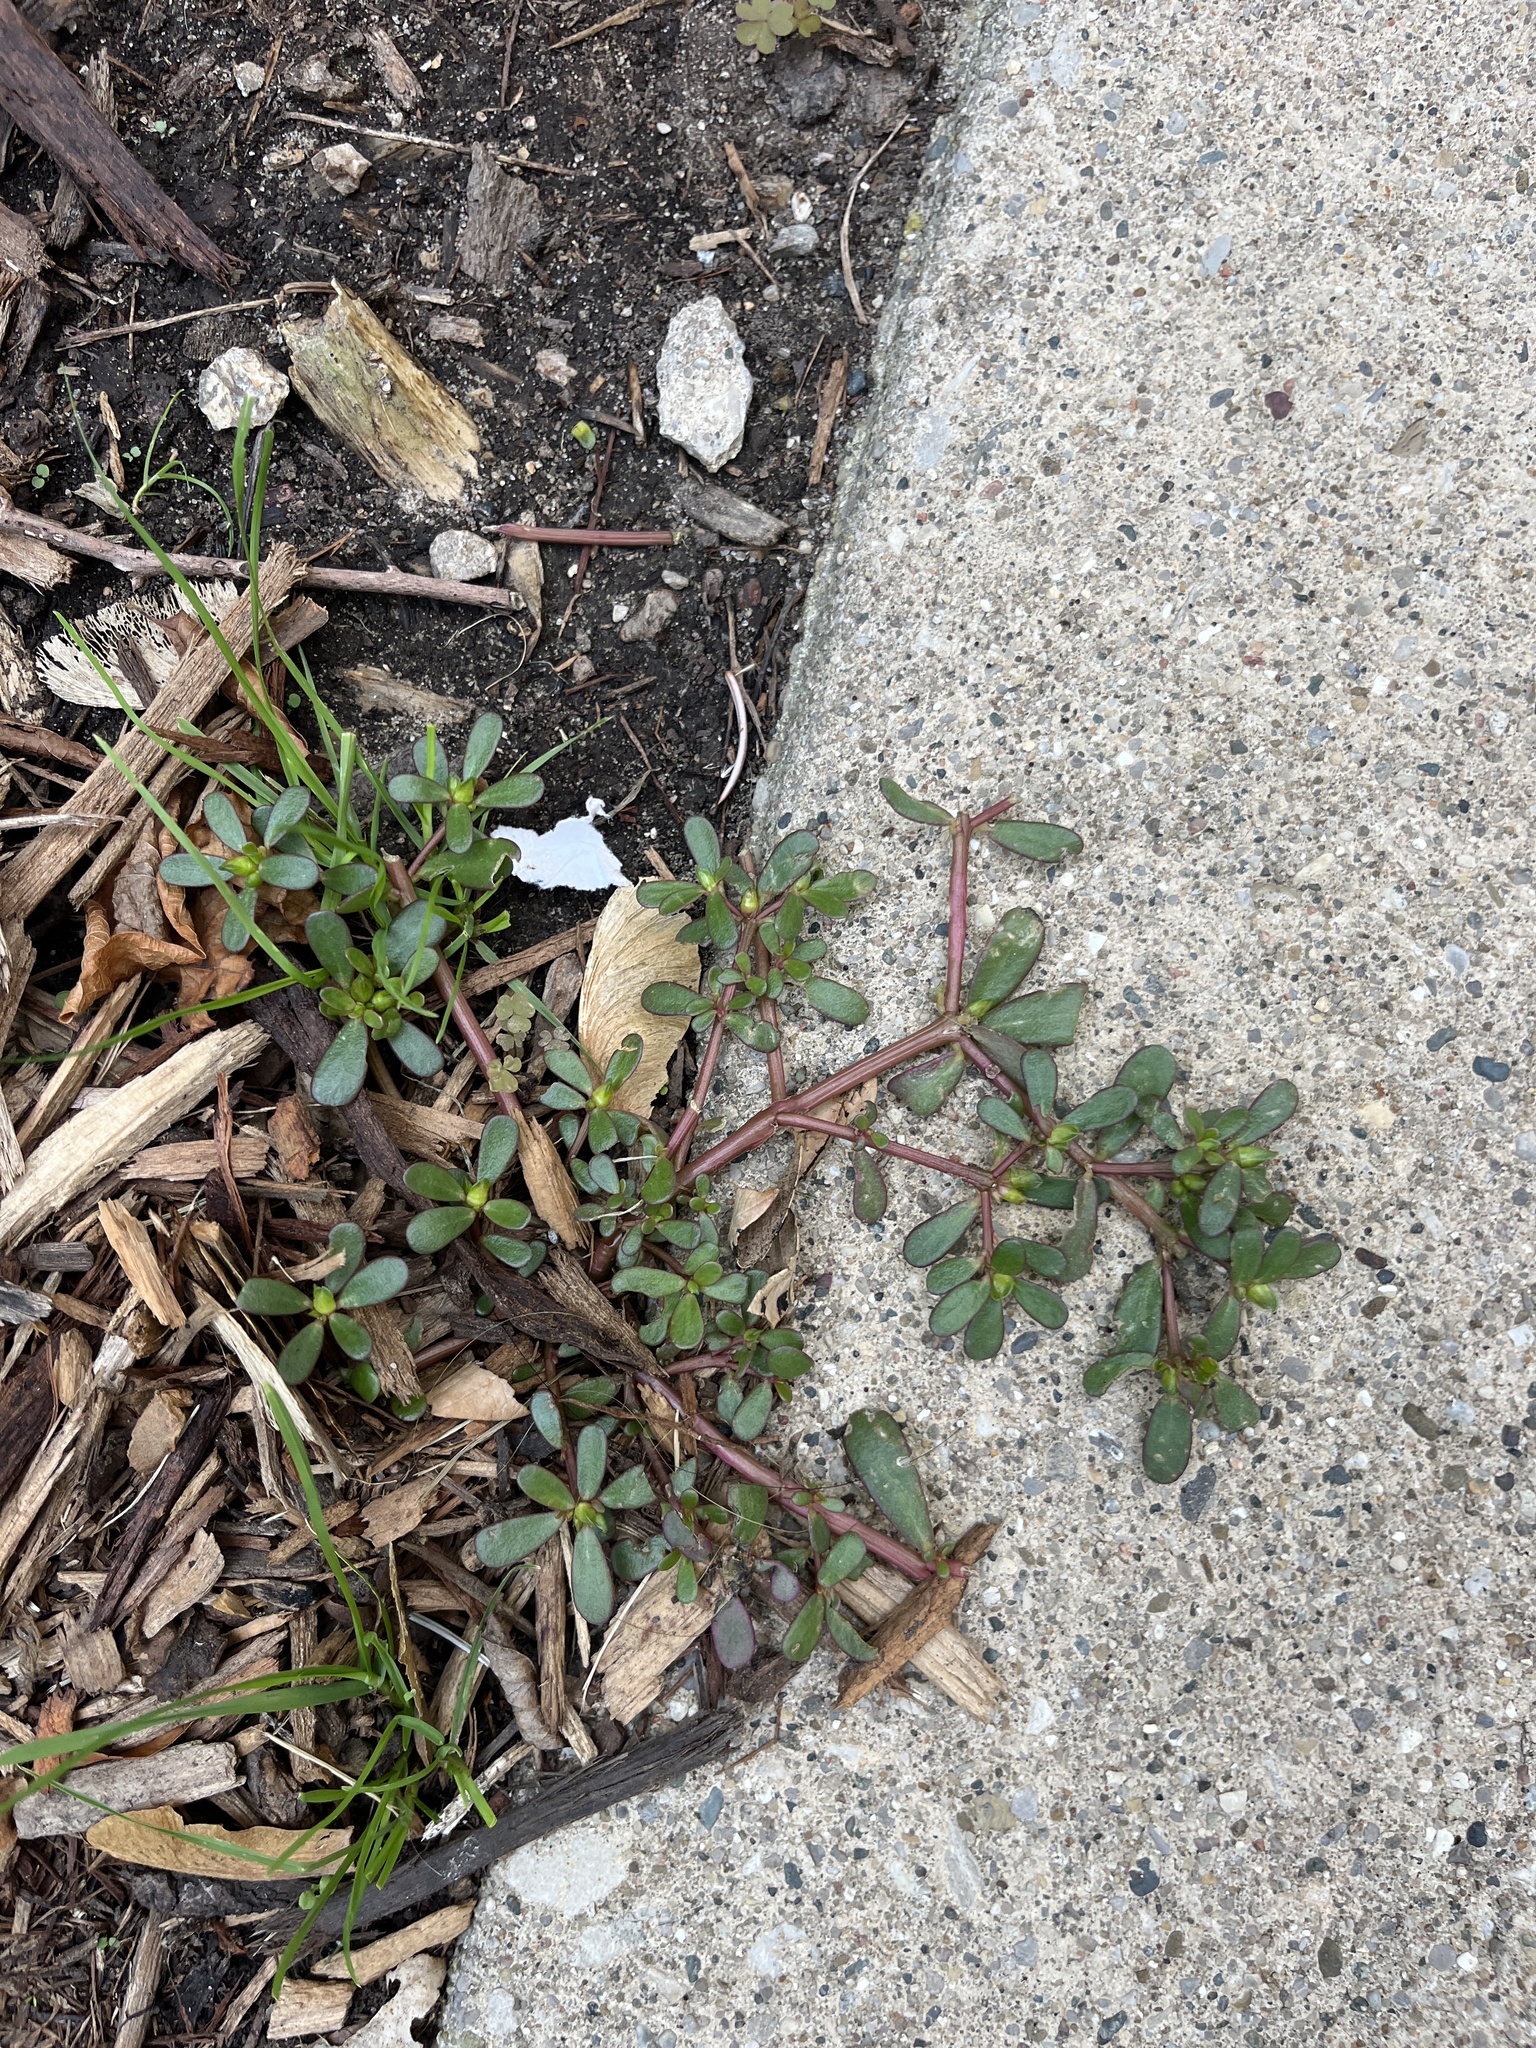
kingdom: Plantae
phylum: Tracheophyta
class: Magnoliopsida
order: Caryophyllales
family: Portulacaceae
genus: Portulaca
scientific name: Portulaca oleracea
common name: Common purslane
